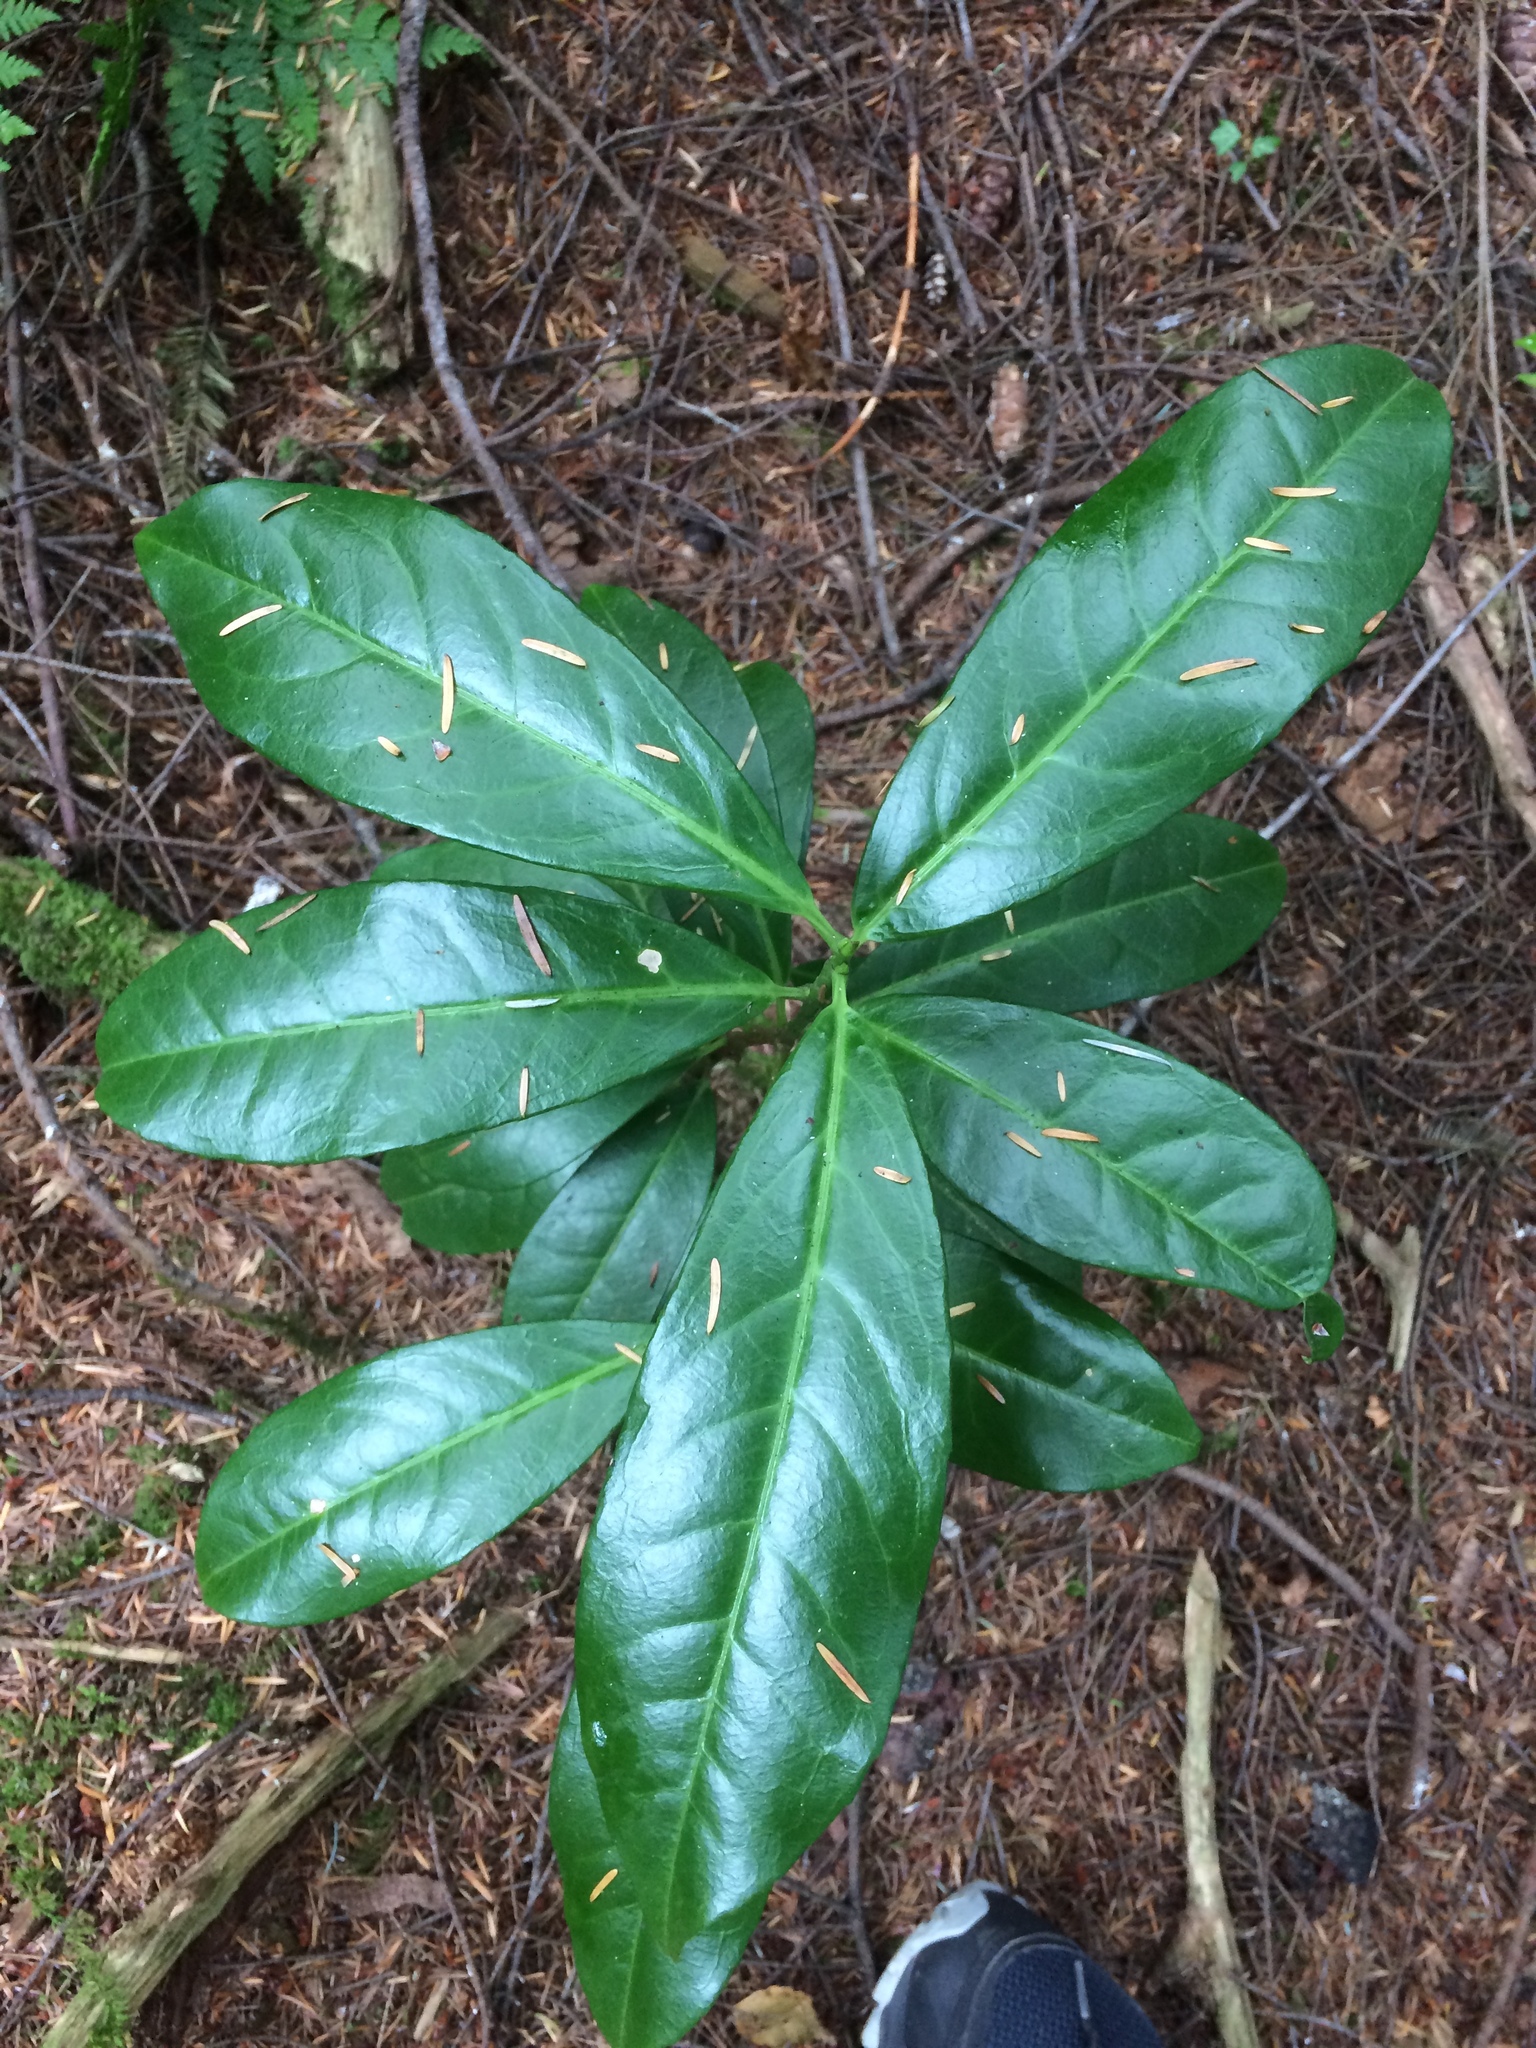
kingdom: Plantae
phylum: Tracheophyta
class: Magnoliopsida
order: Rosales
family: Rosaceae
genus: Prunus
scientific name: Prunus laurocerasus
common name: Cherry laurel
